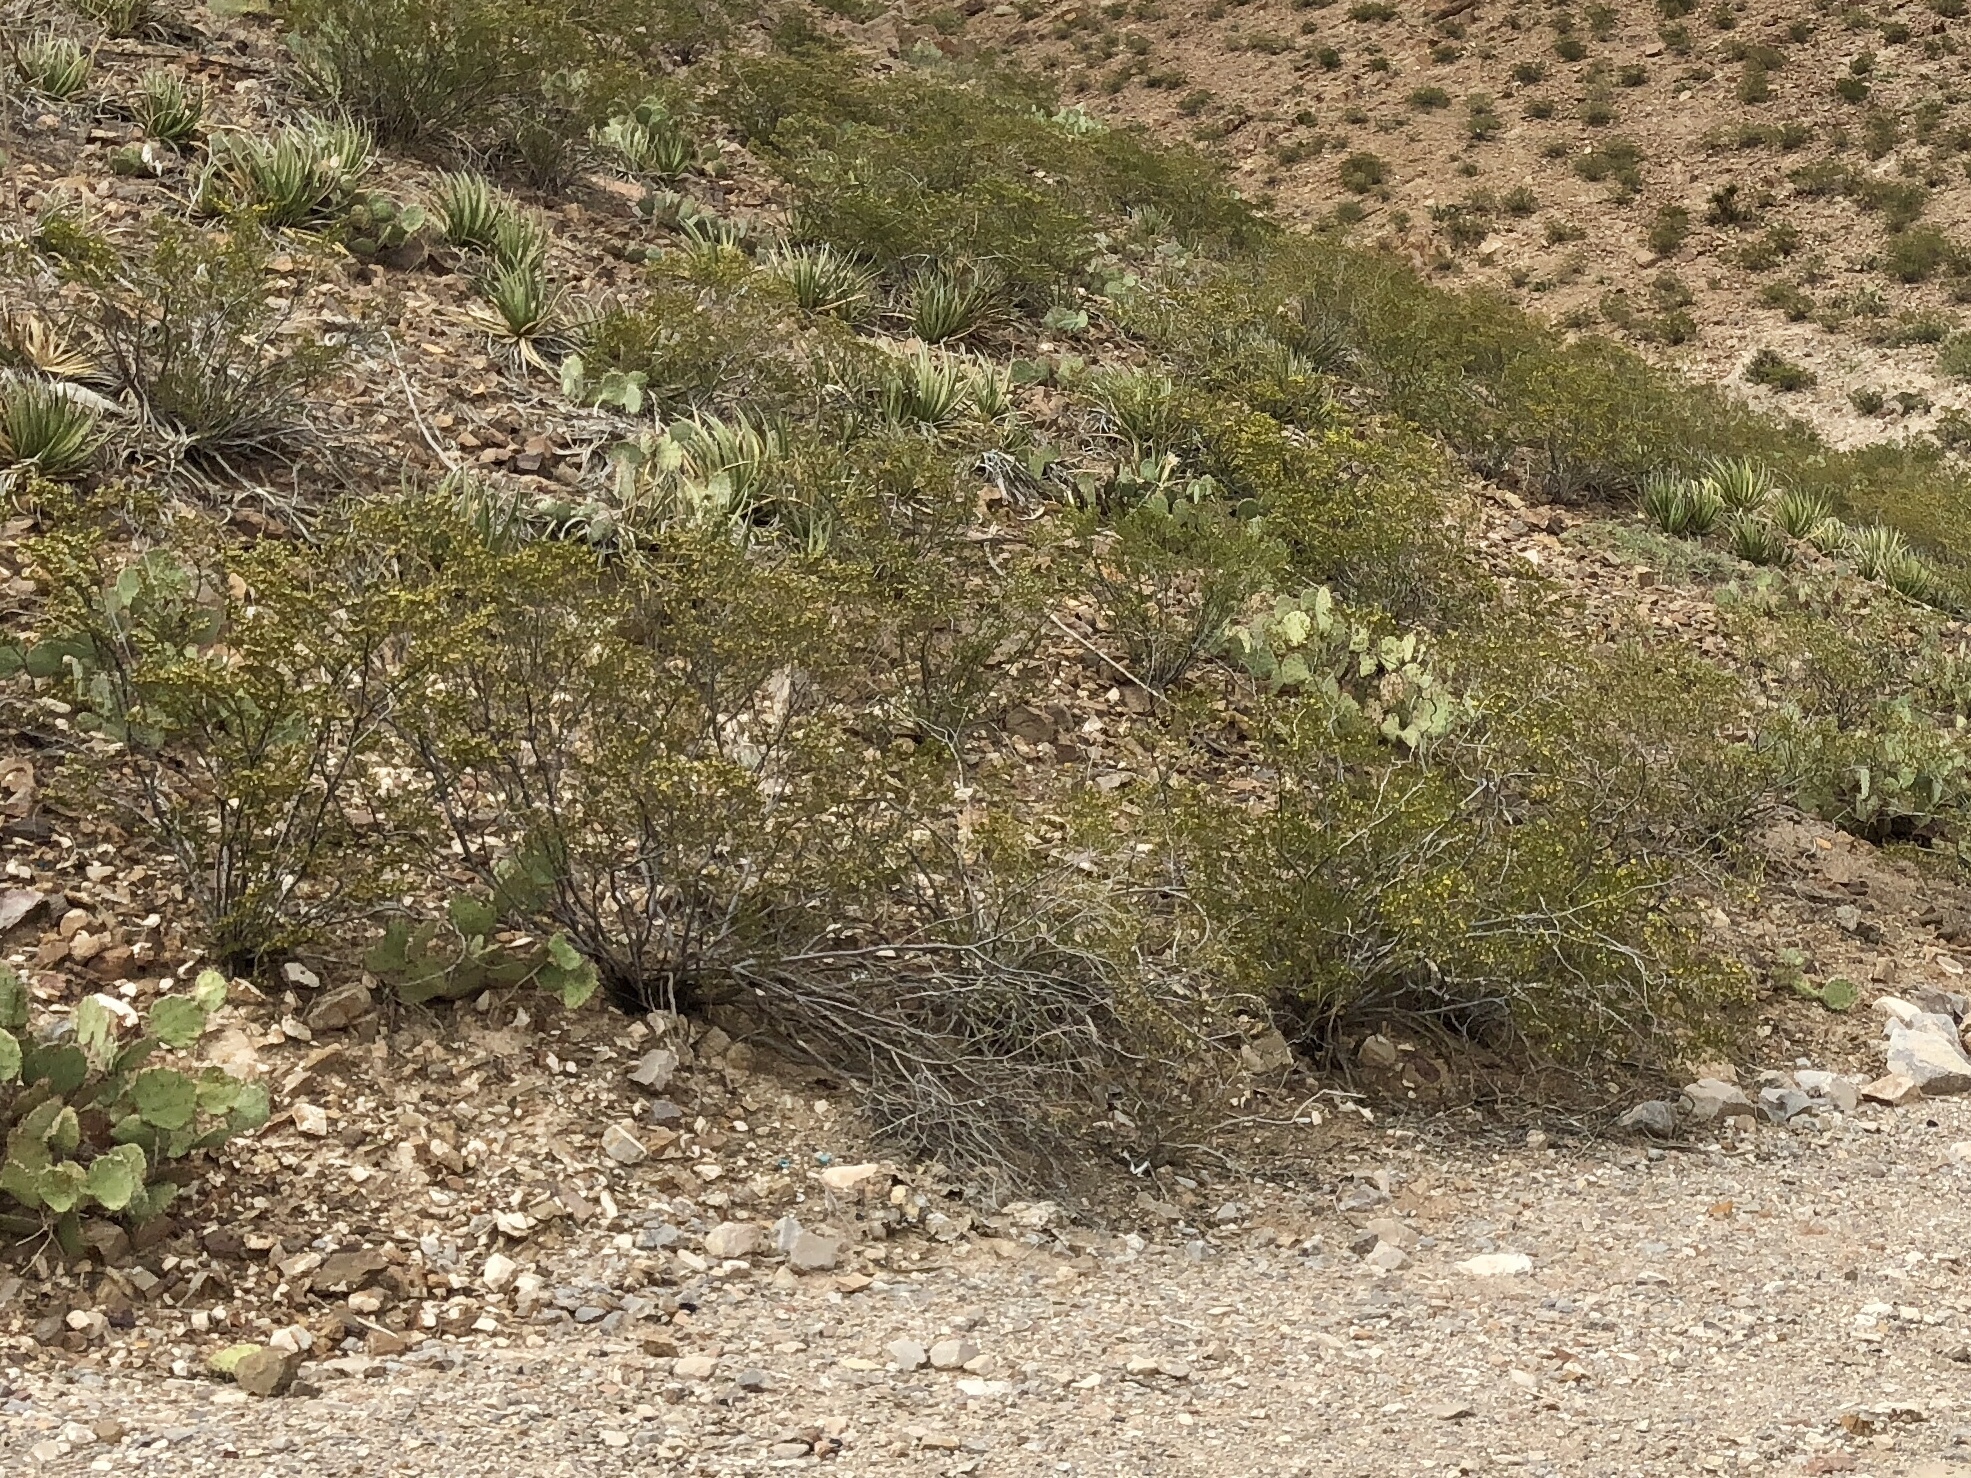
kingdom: Plantae
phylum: Tracheophyta
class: Magnoliopsida
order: Zygophyllales
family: Zygophyllaceae
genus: Larrea
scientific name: Larrea tridentata
